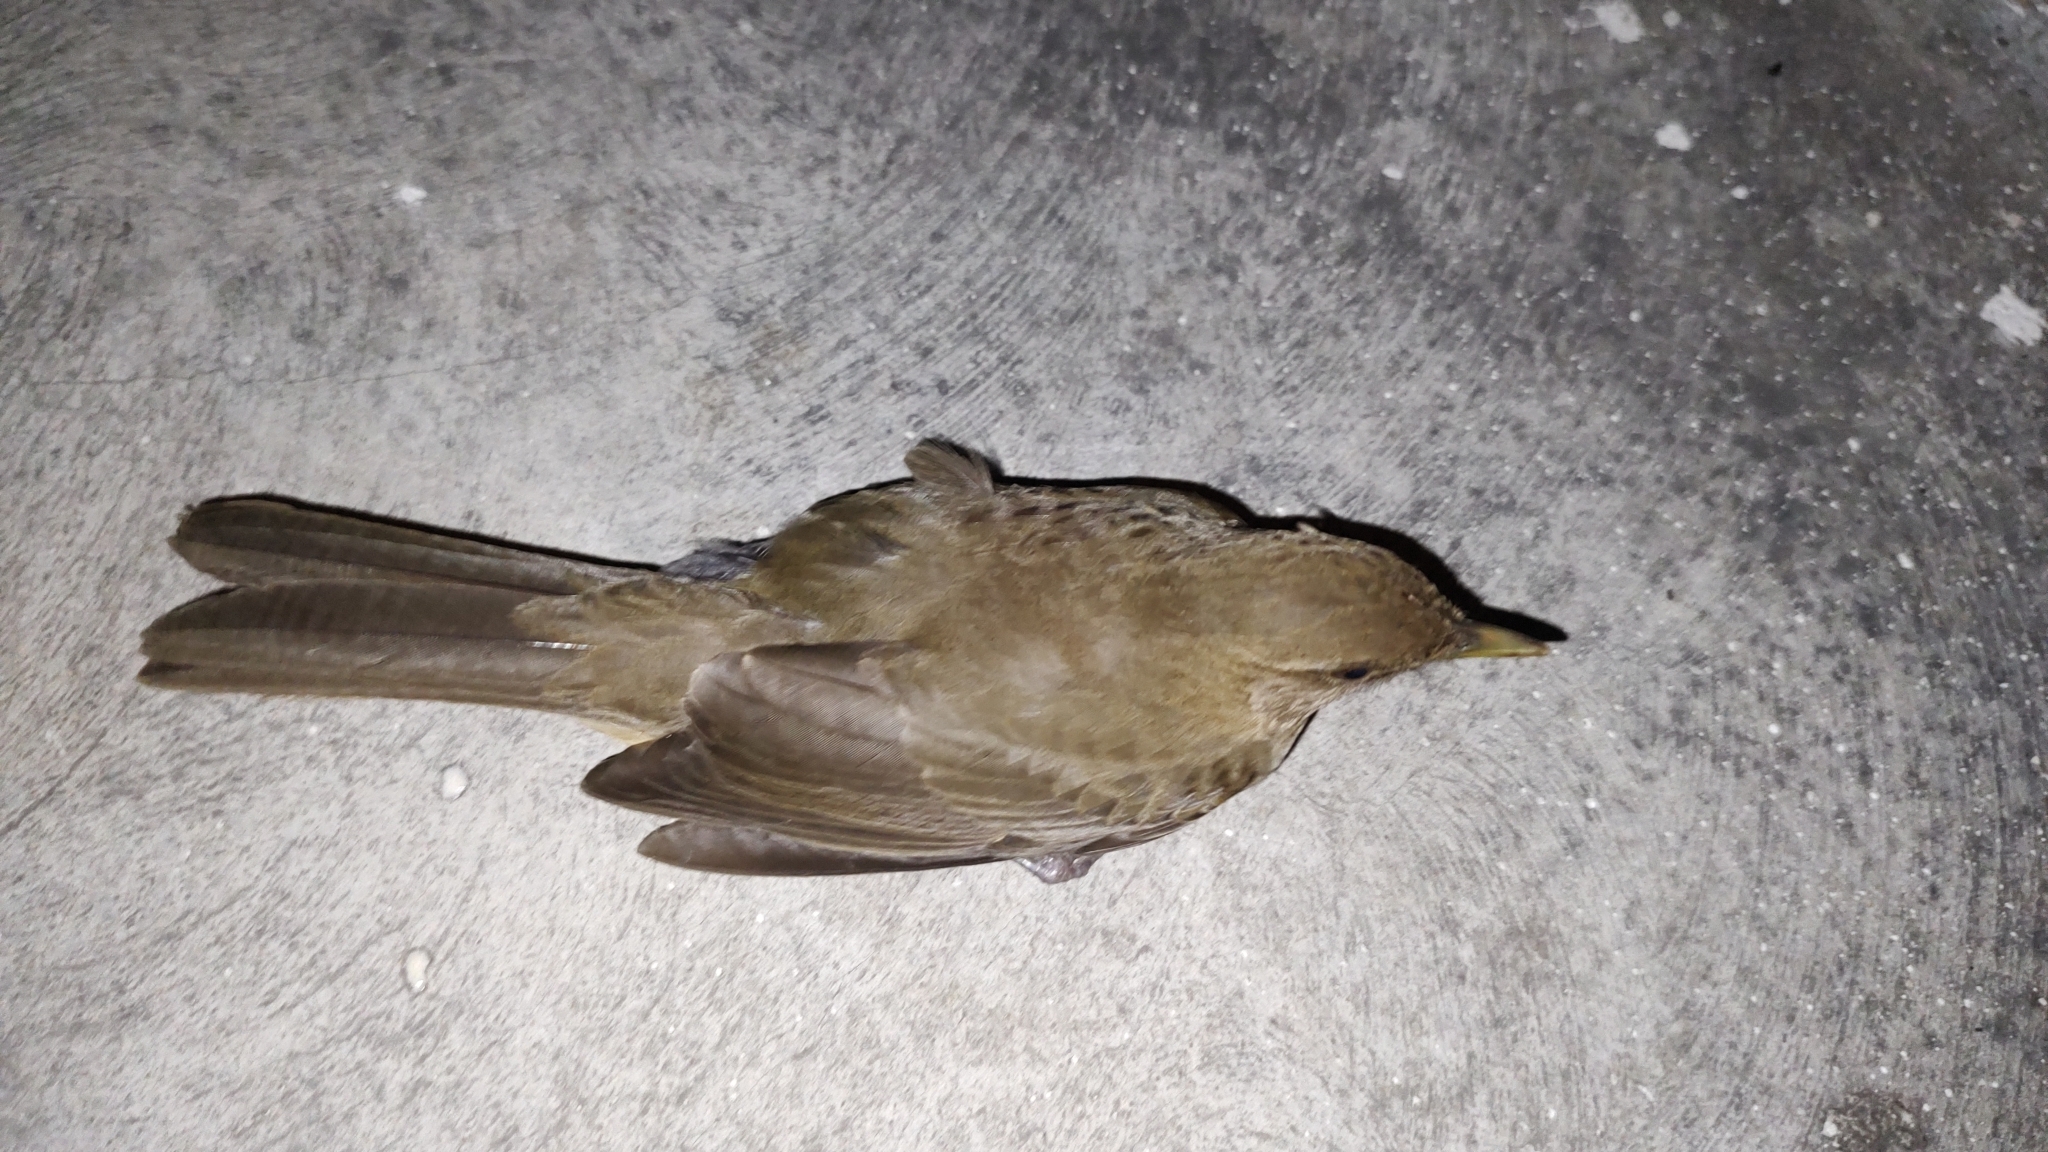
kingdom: Animalia
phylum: Chordata
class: Aves
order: Passeriformes
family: Turdidae
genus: Turdus
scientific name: Turdus grayi
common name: Clay-colored thrush
